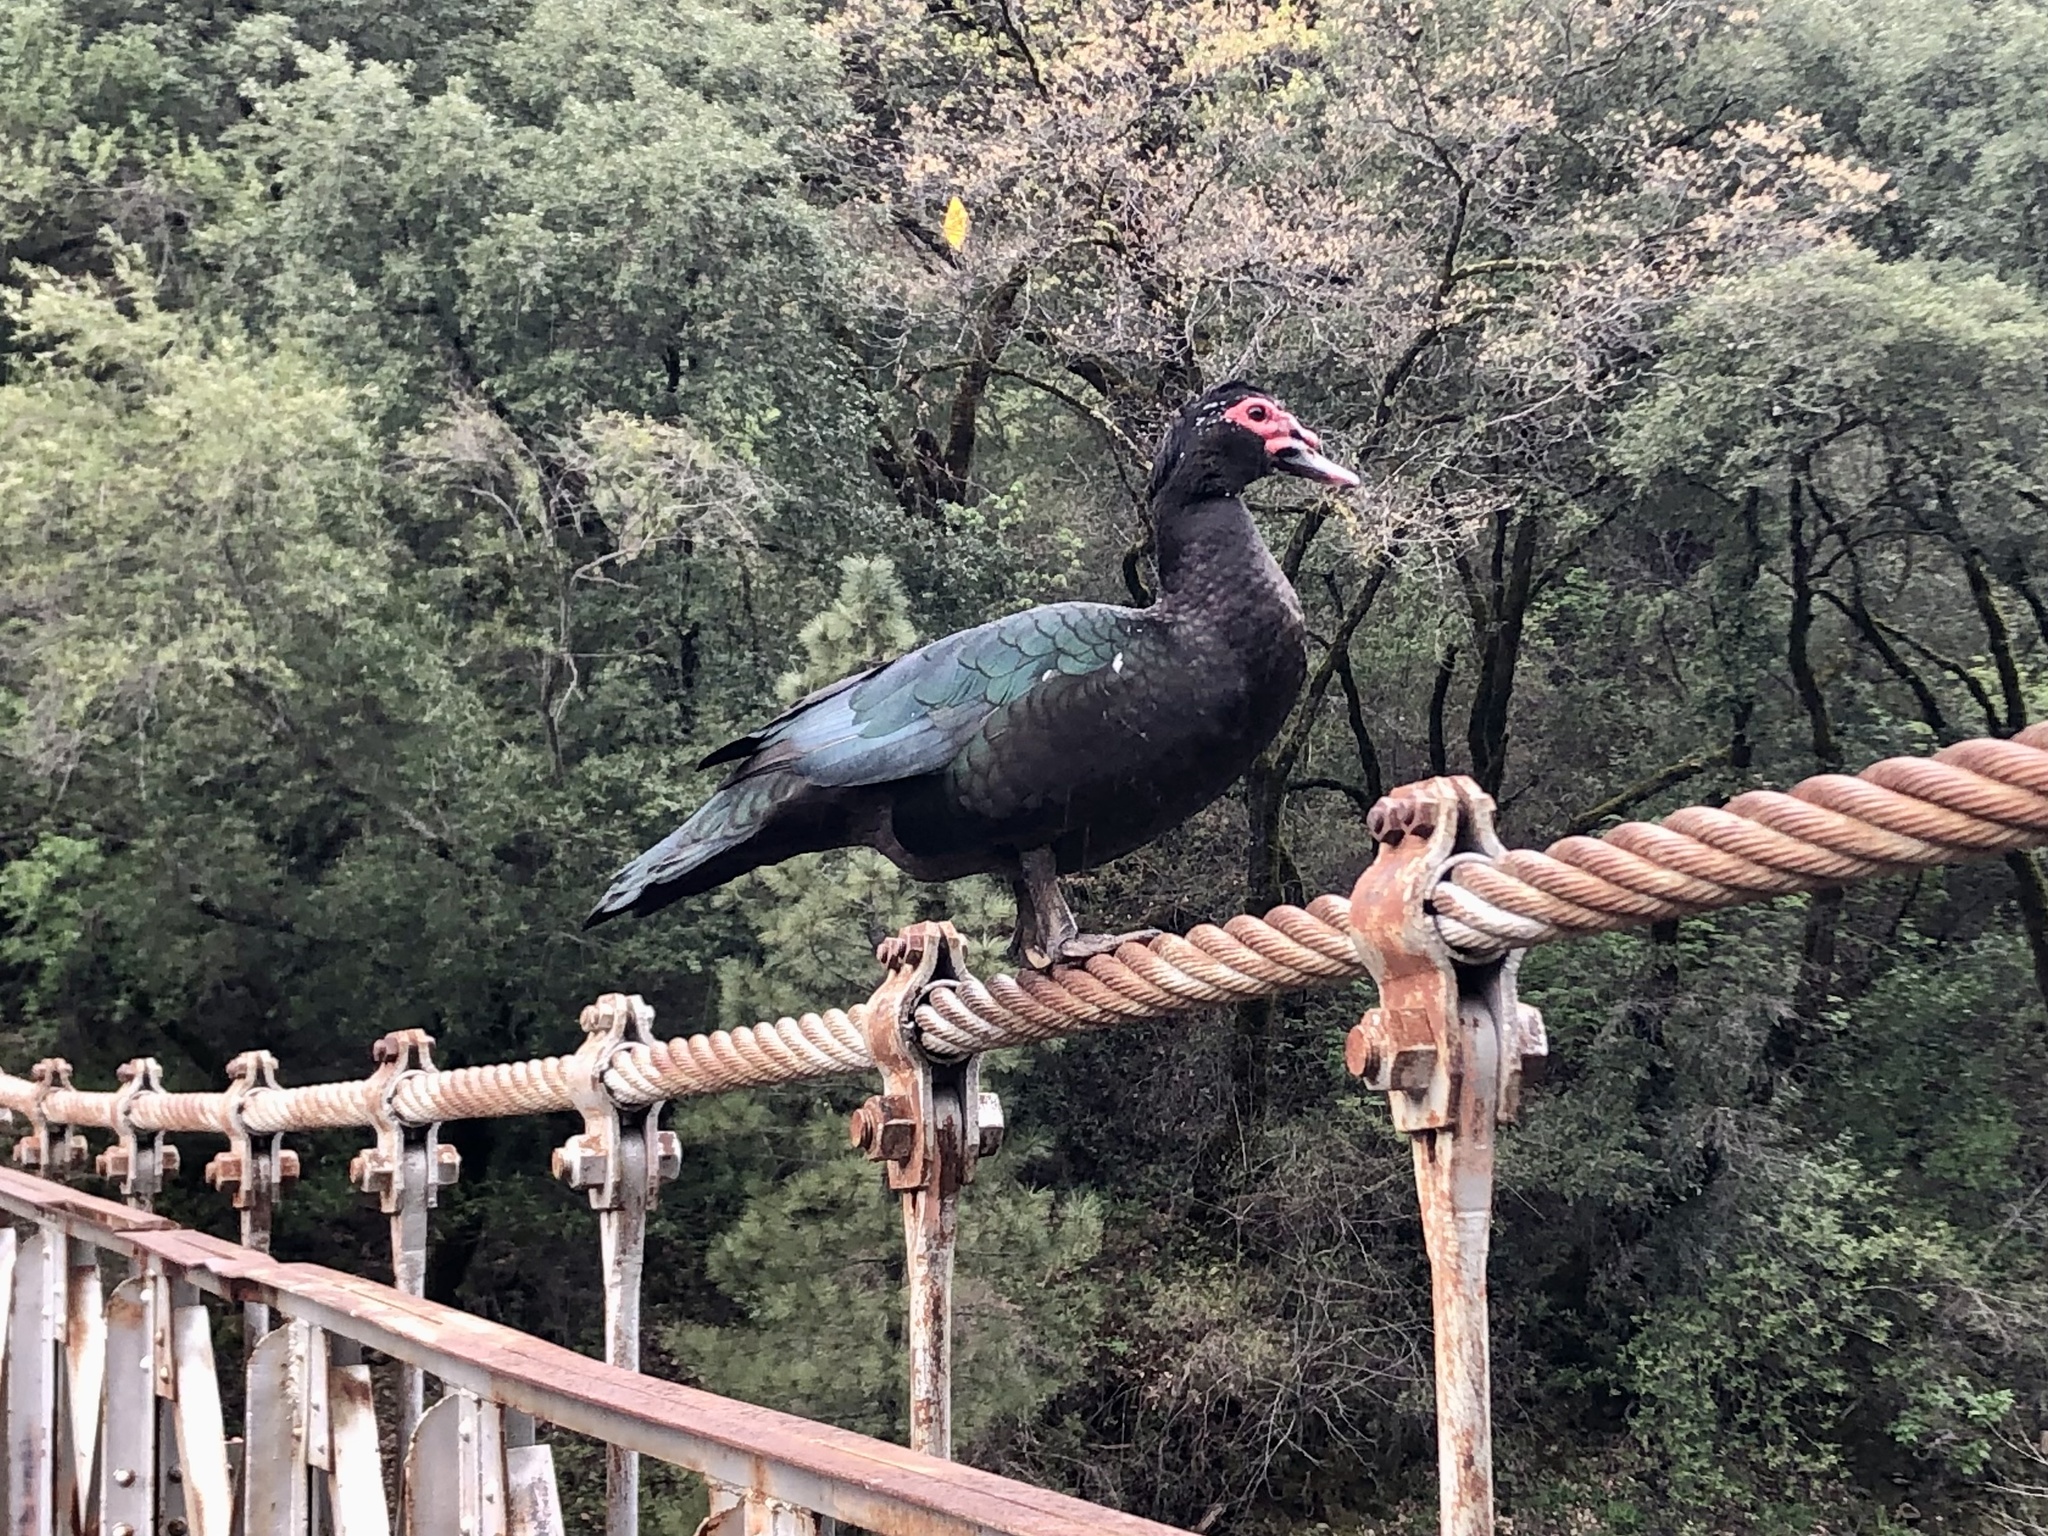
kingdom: Animalia
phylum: Chordata
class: Aves
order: Anseriformes
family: Anatidae
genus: Cairina
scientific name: Cairina moschata
